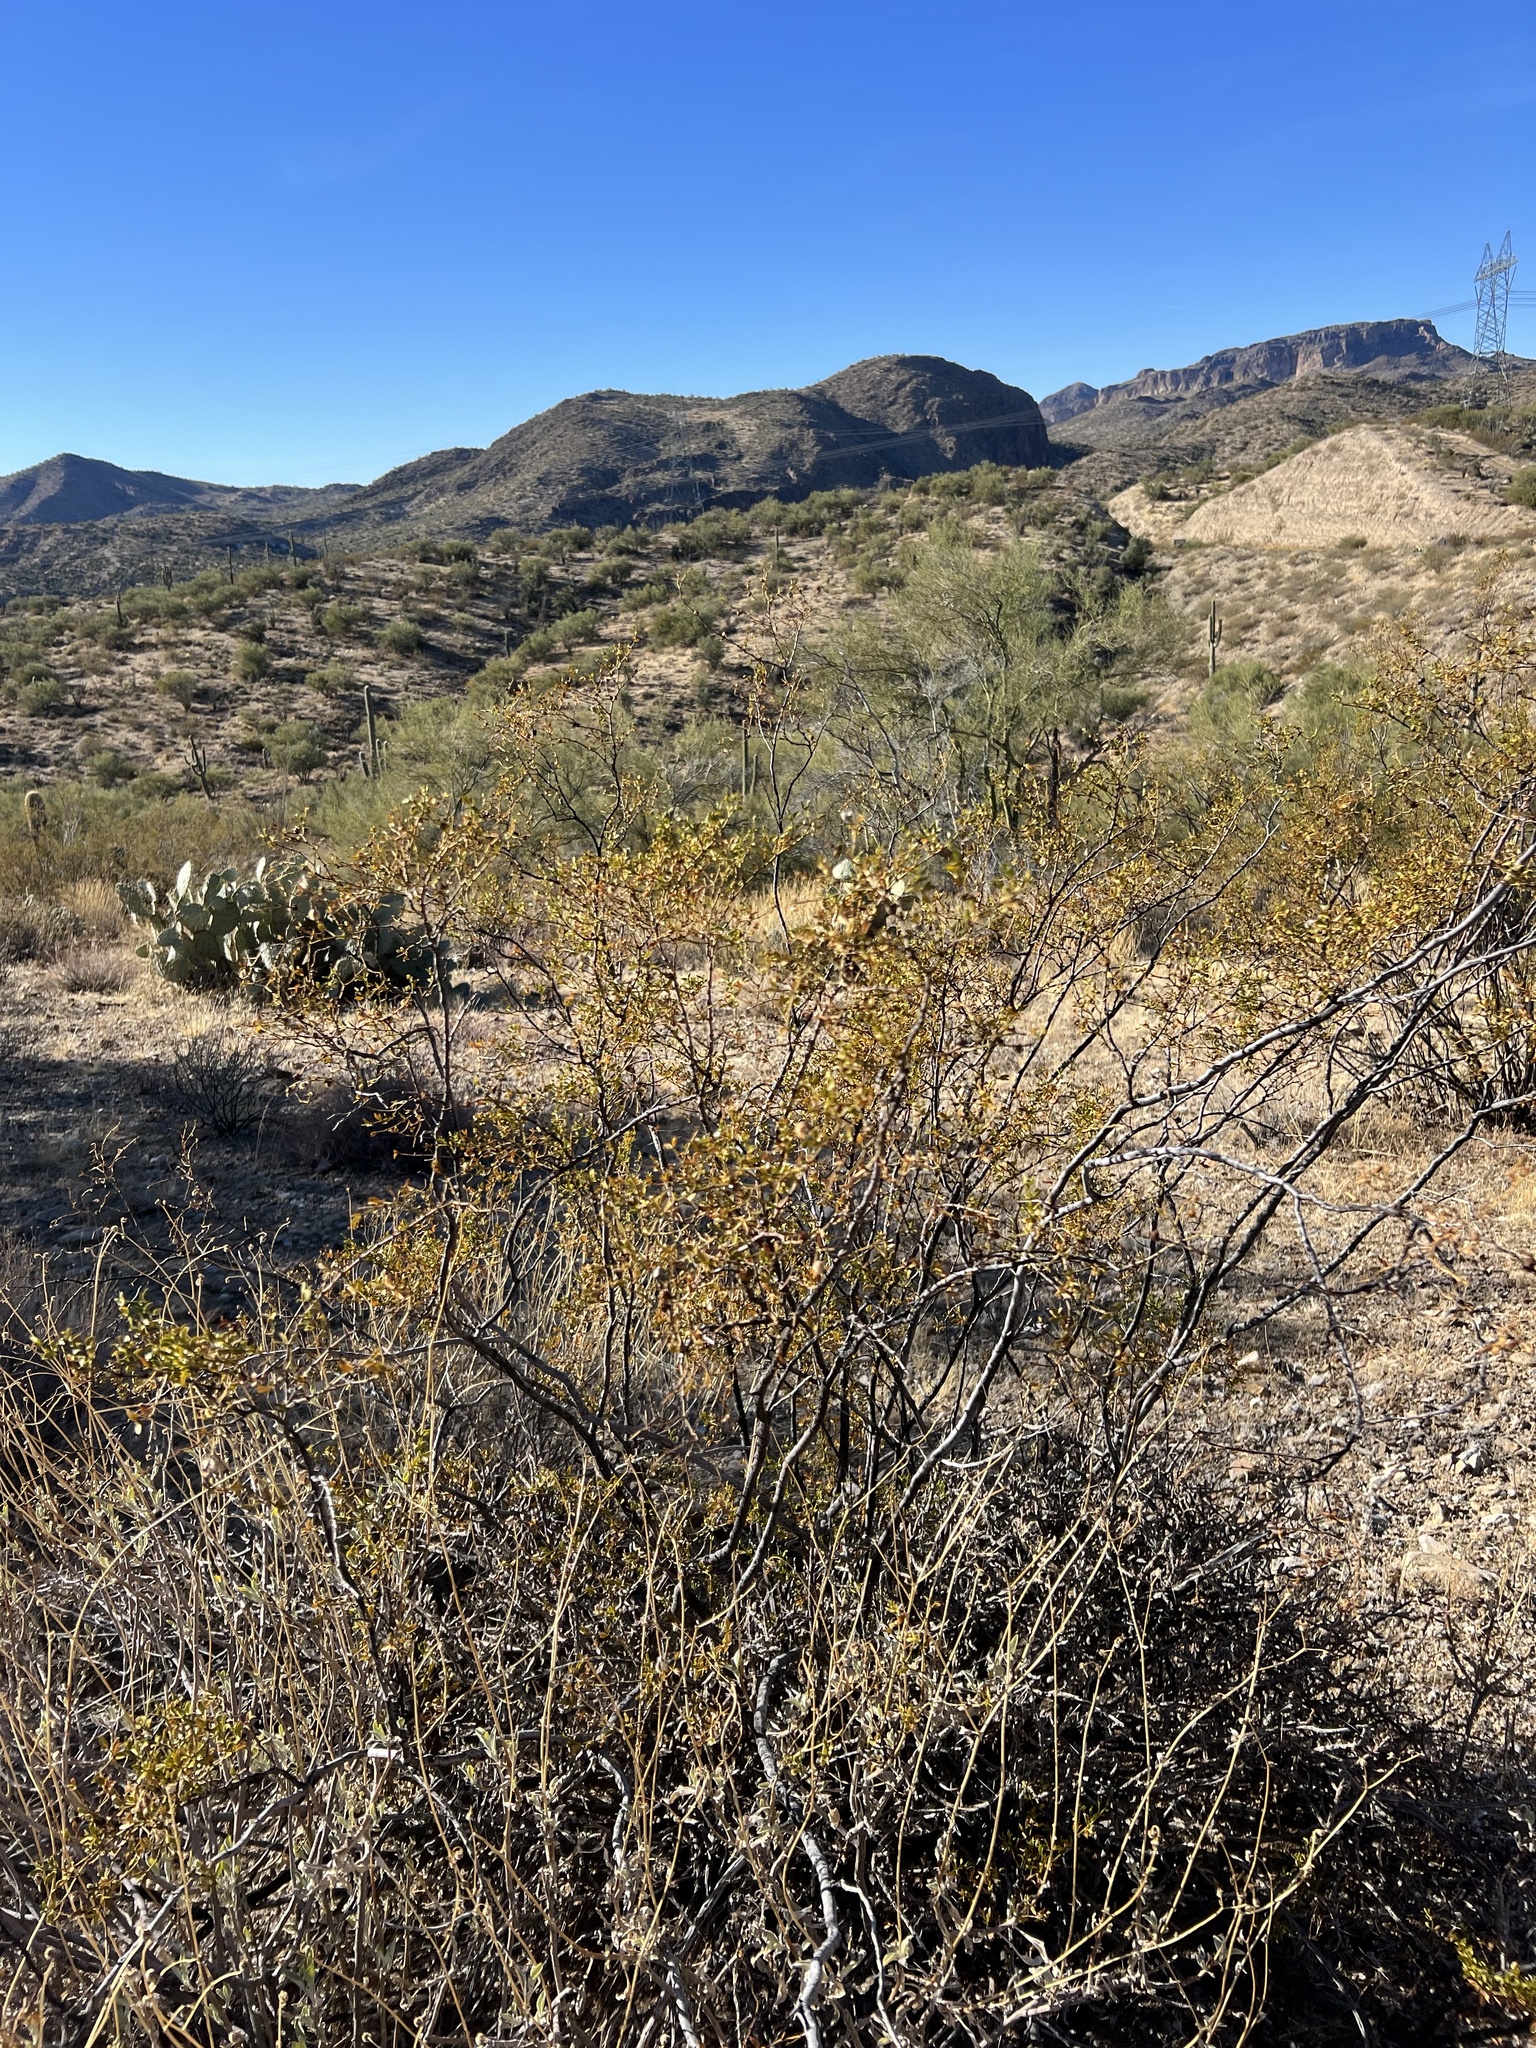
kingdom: Plantae
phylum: Tracheophyta
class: Magnoliopsida
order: Zygophyllales
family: Zygophyllaceae
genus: Larrea
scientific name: Larrea tridentata
